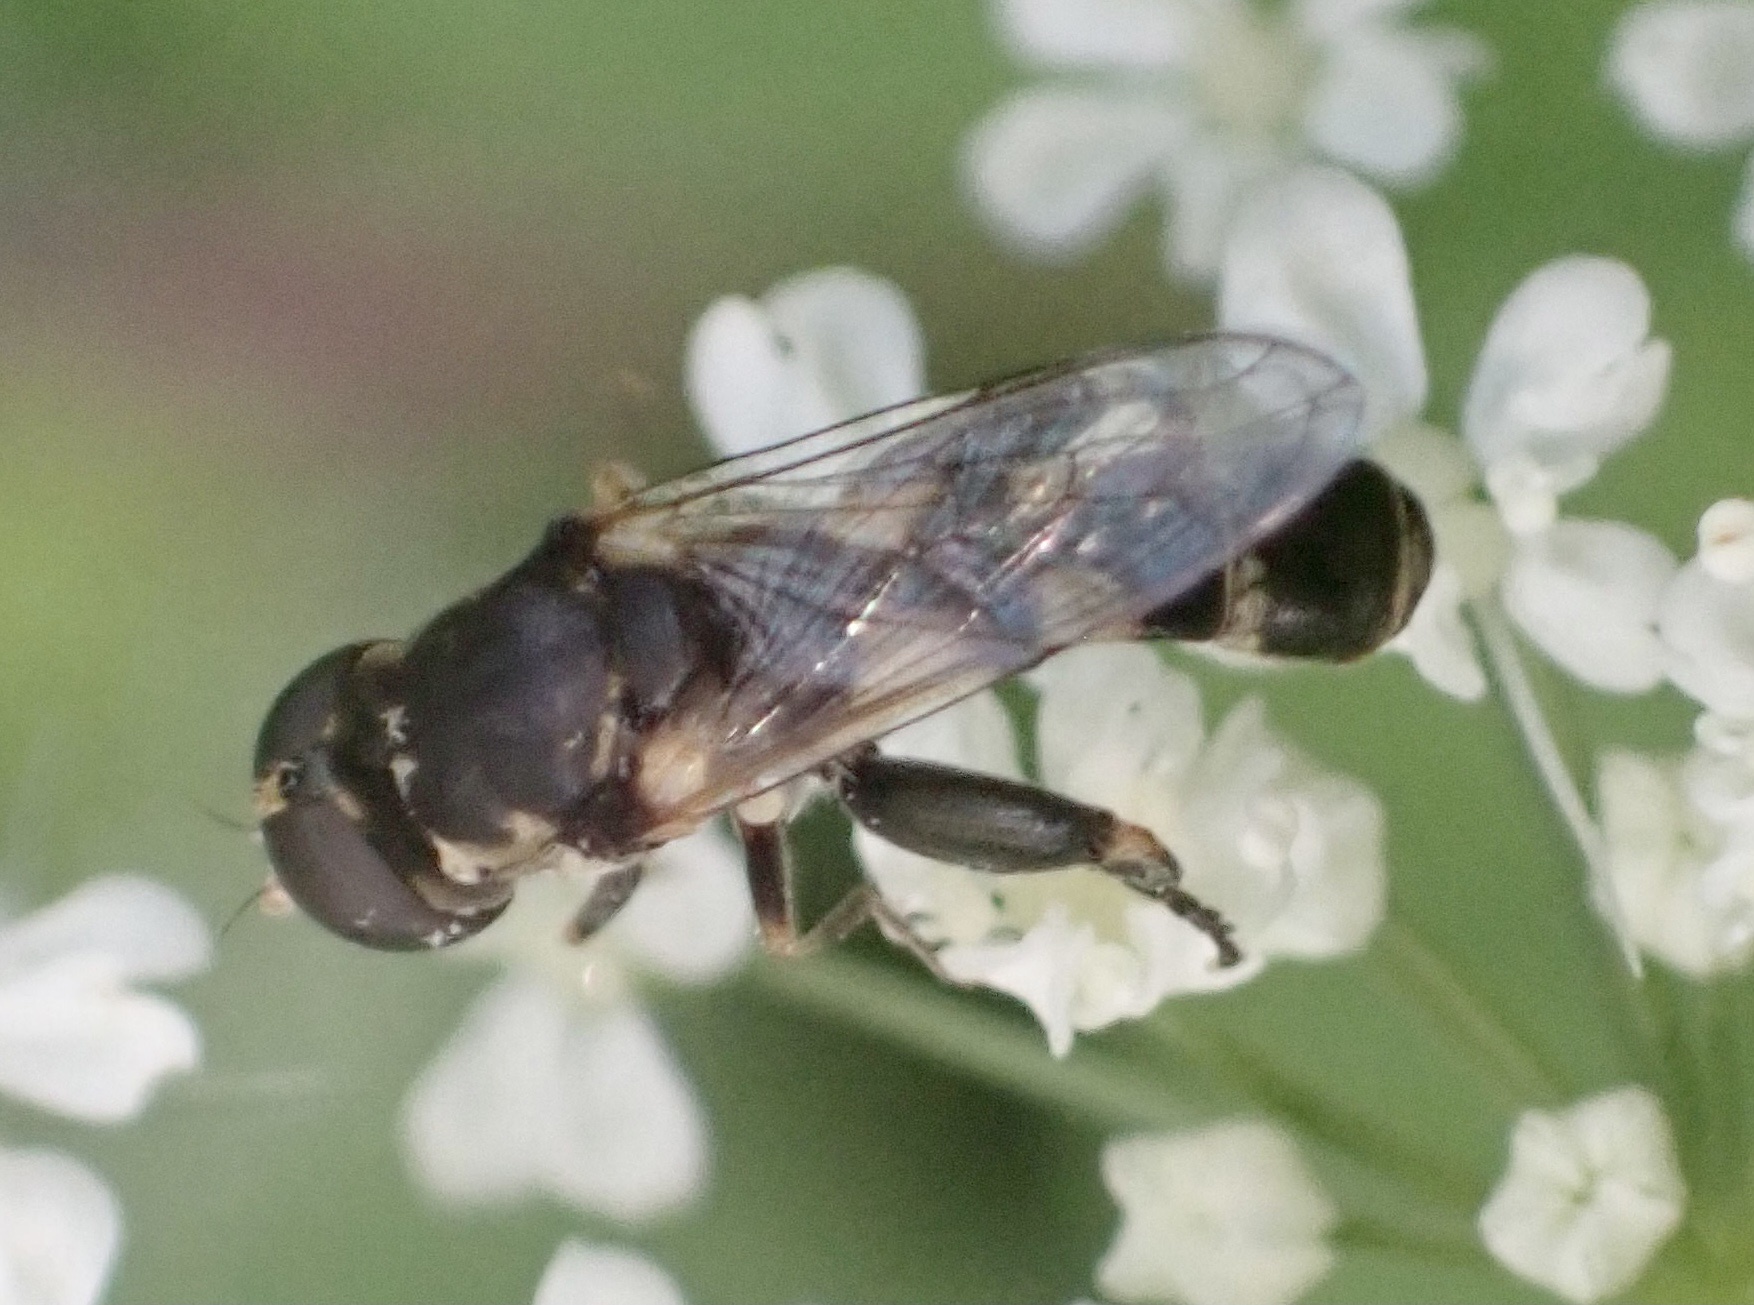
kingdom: Animalia
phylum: Arthropoda
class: Insecta
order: Diptera
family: Syrphidae
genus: Syritta
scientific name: Syritta pipiens
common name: Hover fly
